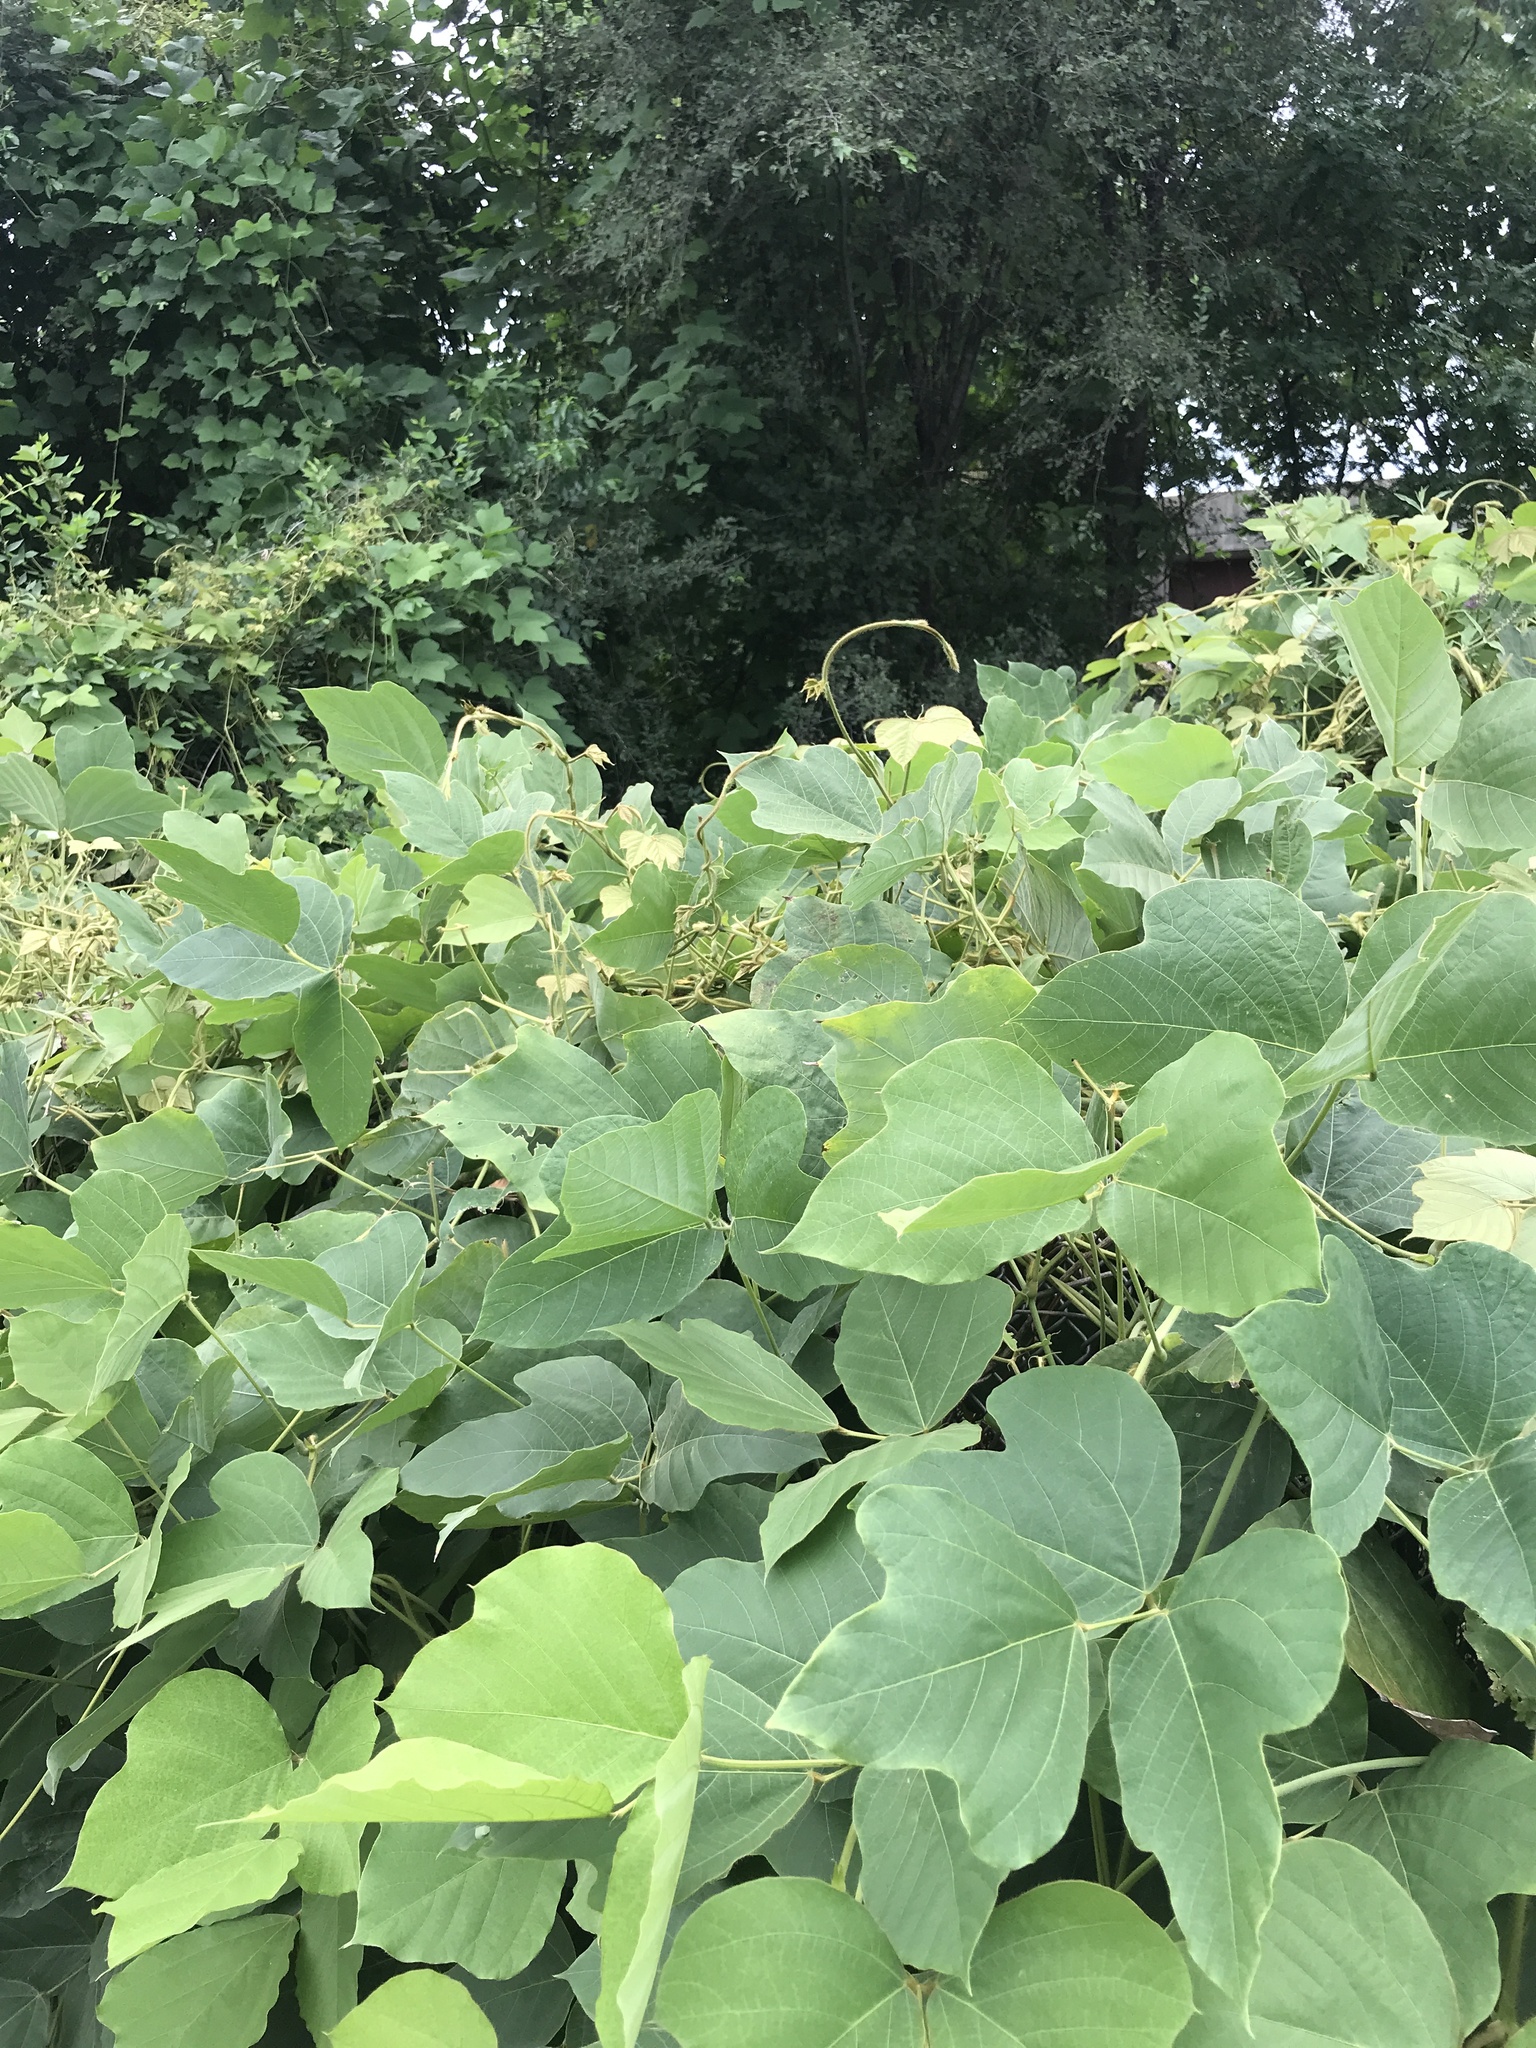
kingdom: Plantae
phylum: Tracheophyta
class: Magnoliopsida
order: Fabales
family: Fabaceae
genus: Pueraria
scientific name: Pueraria montana
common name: Kudzu
